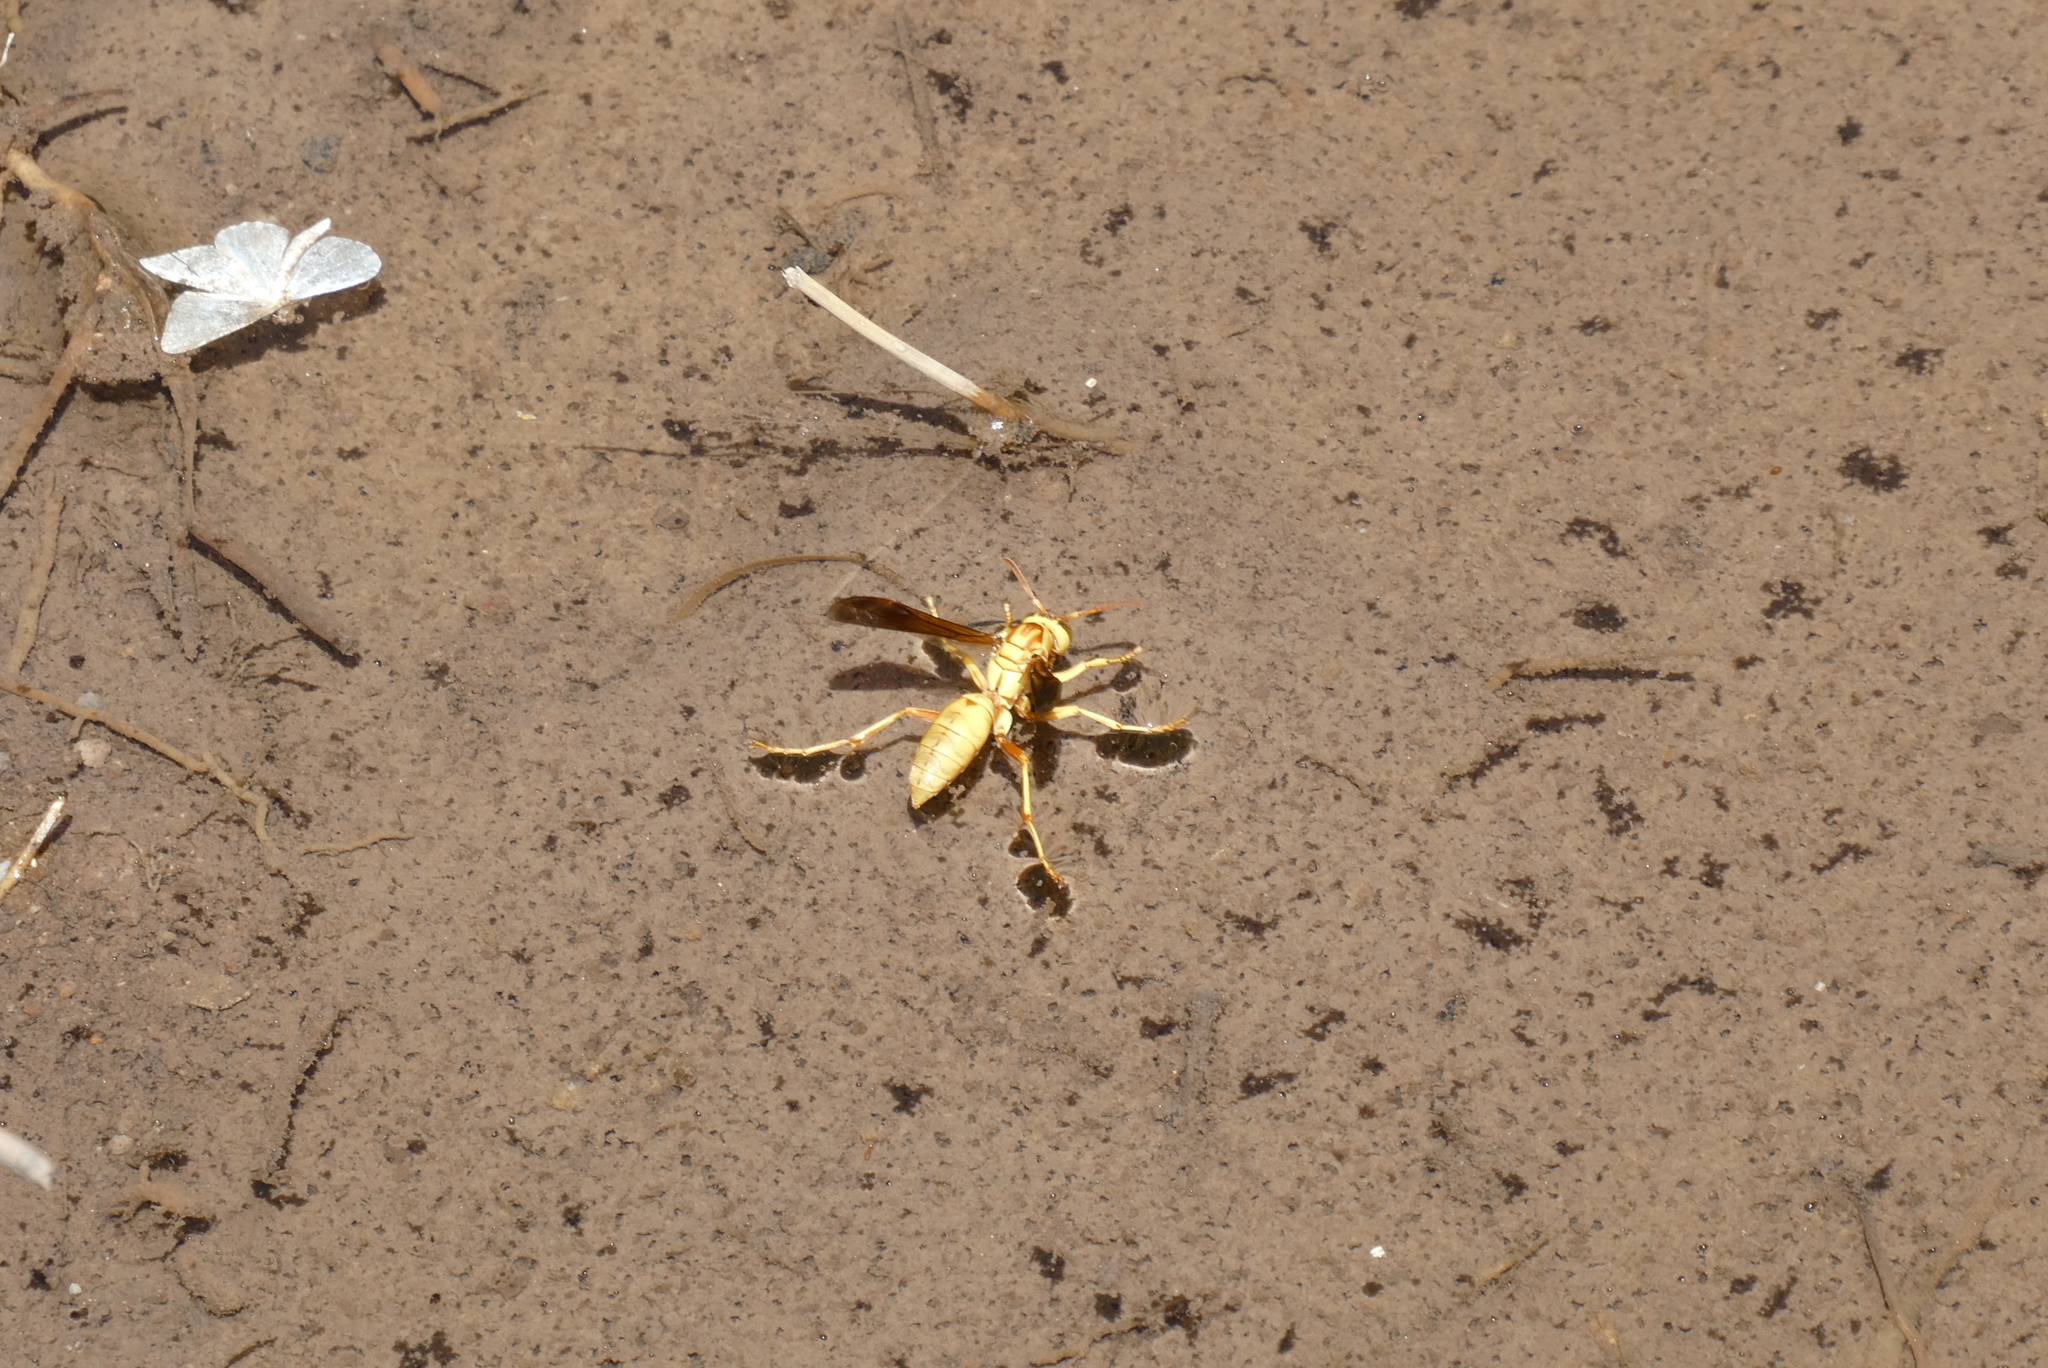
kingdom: Animalia
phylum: Arthropoda
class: Insecta
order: Hymenoptera
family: Eumenidae
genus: Polistes
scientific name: Polistes aurifer
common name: Paper wasp
